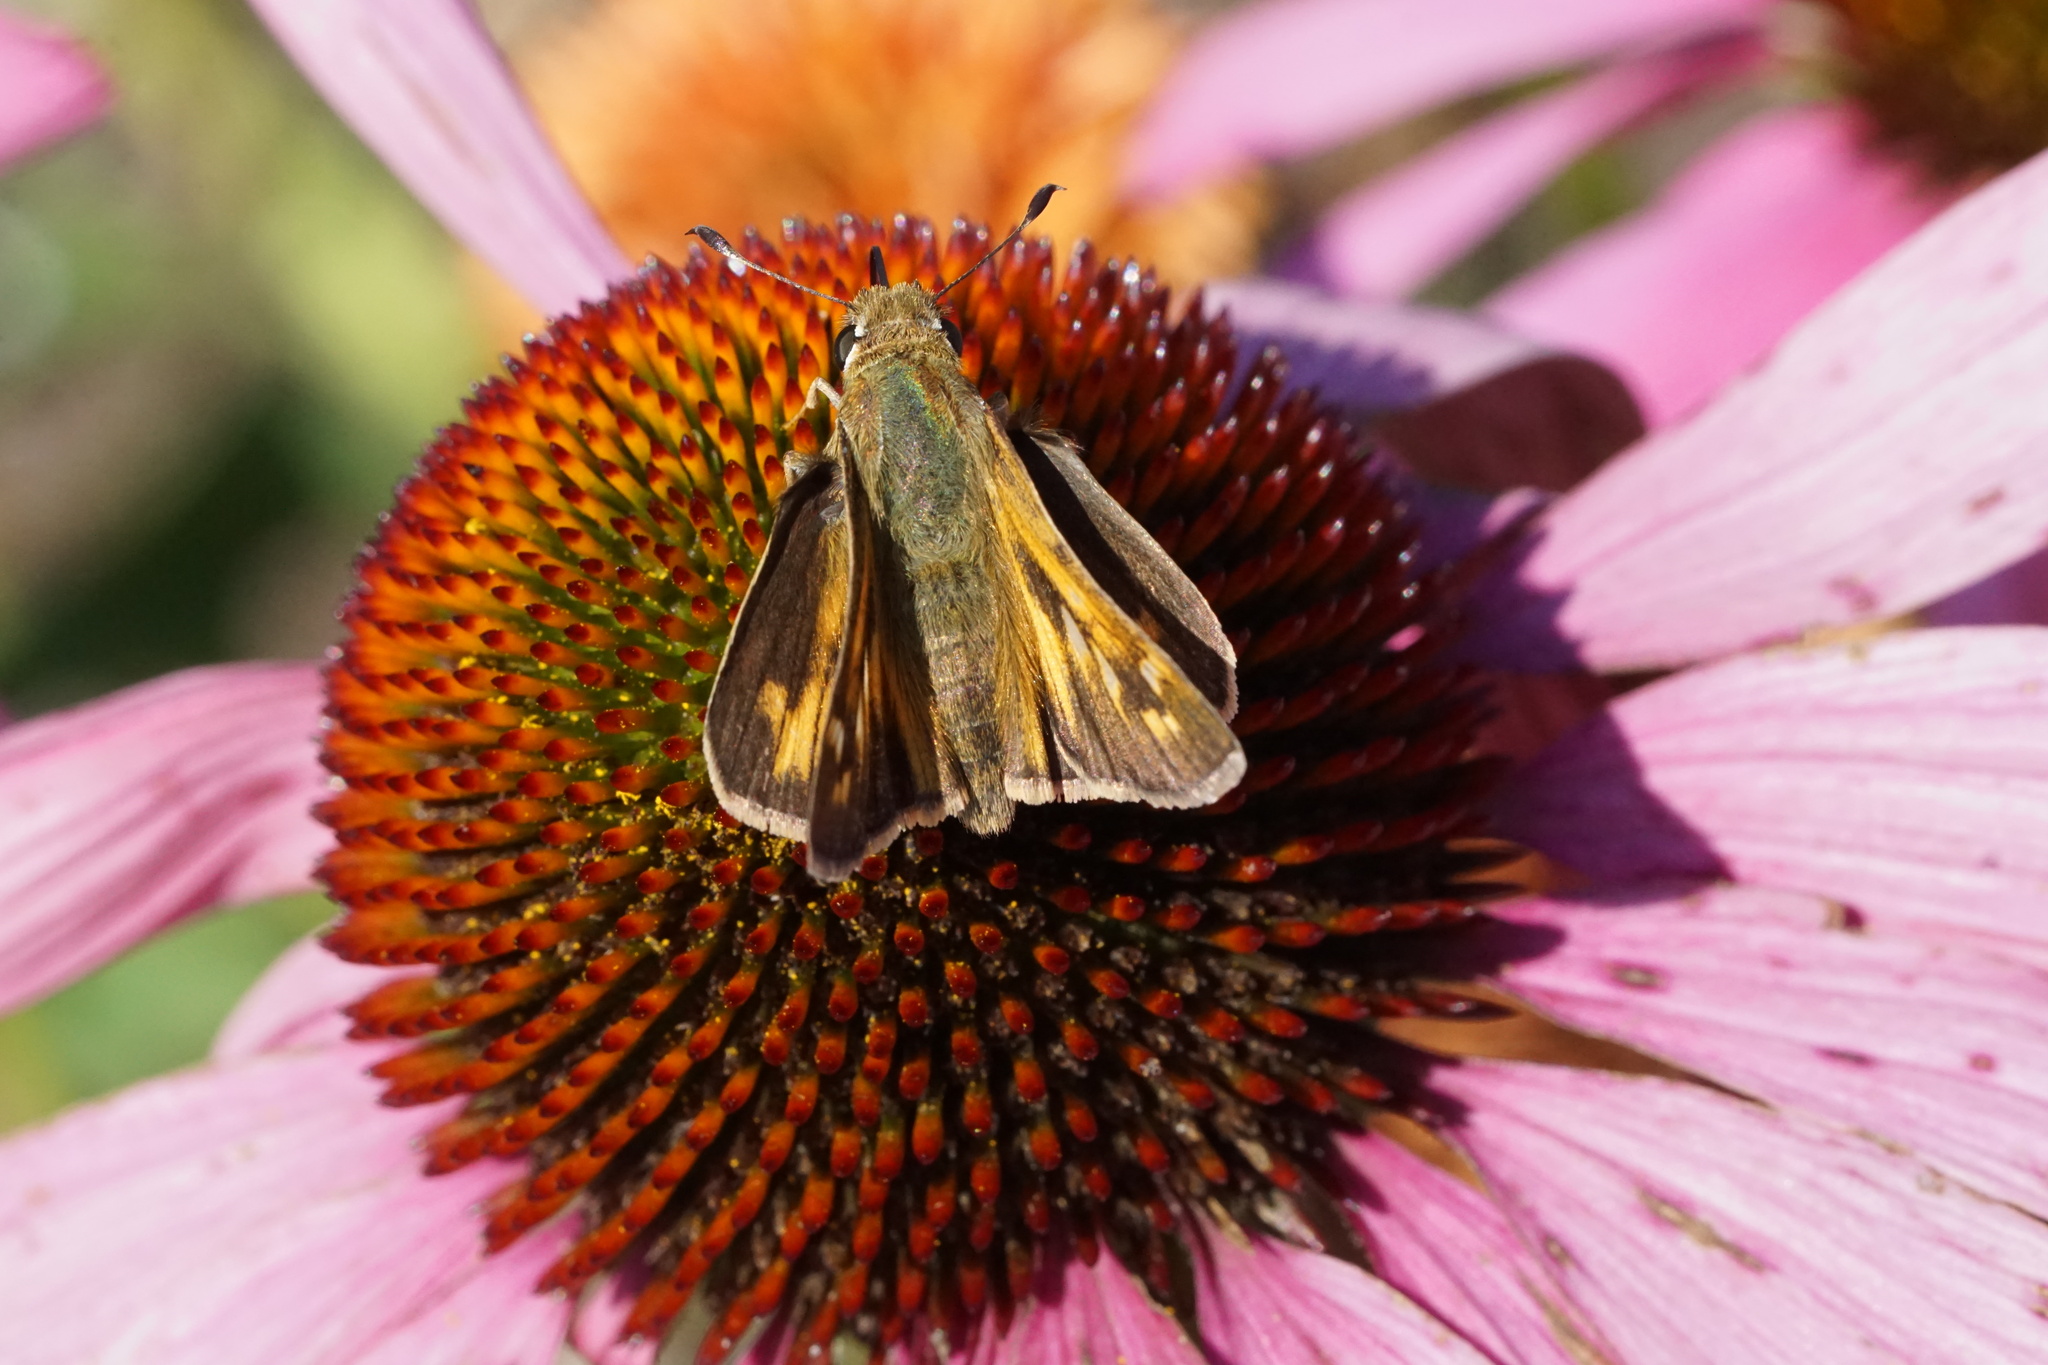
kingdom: Animalia
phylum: Arthropoda
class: Insecta
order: Lepidoptera
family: Hesperiidae
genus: Atalopedes
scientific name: Atalopedes
